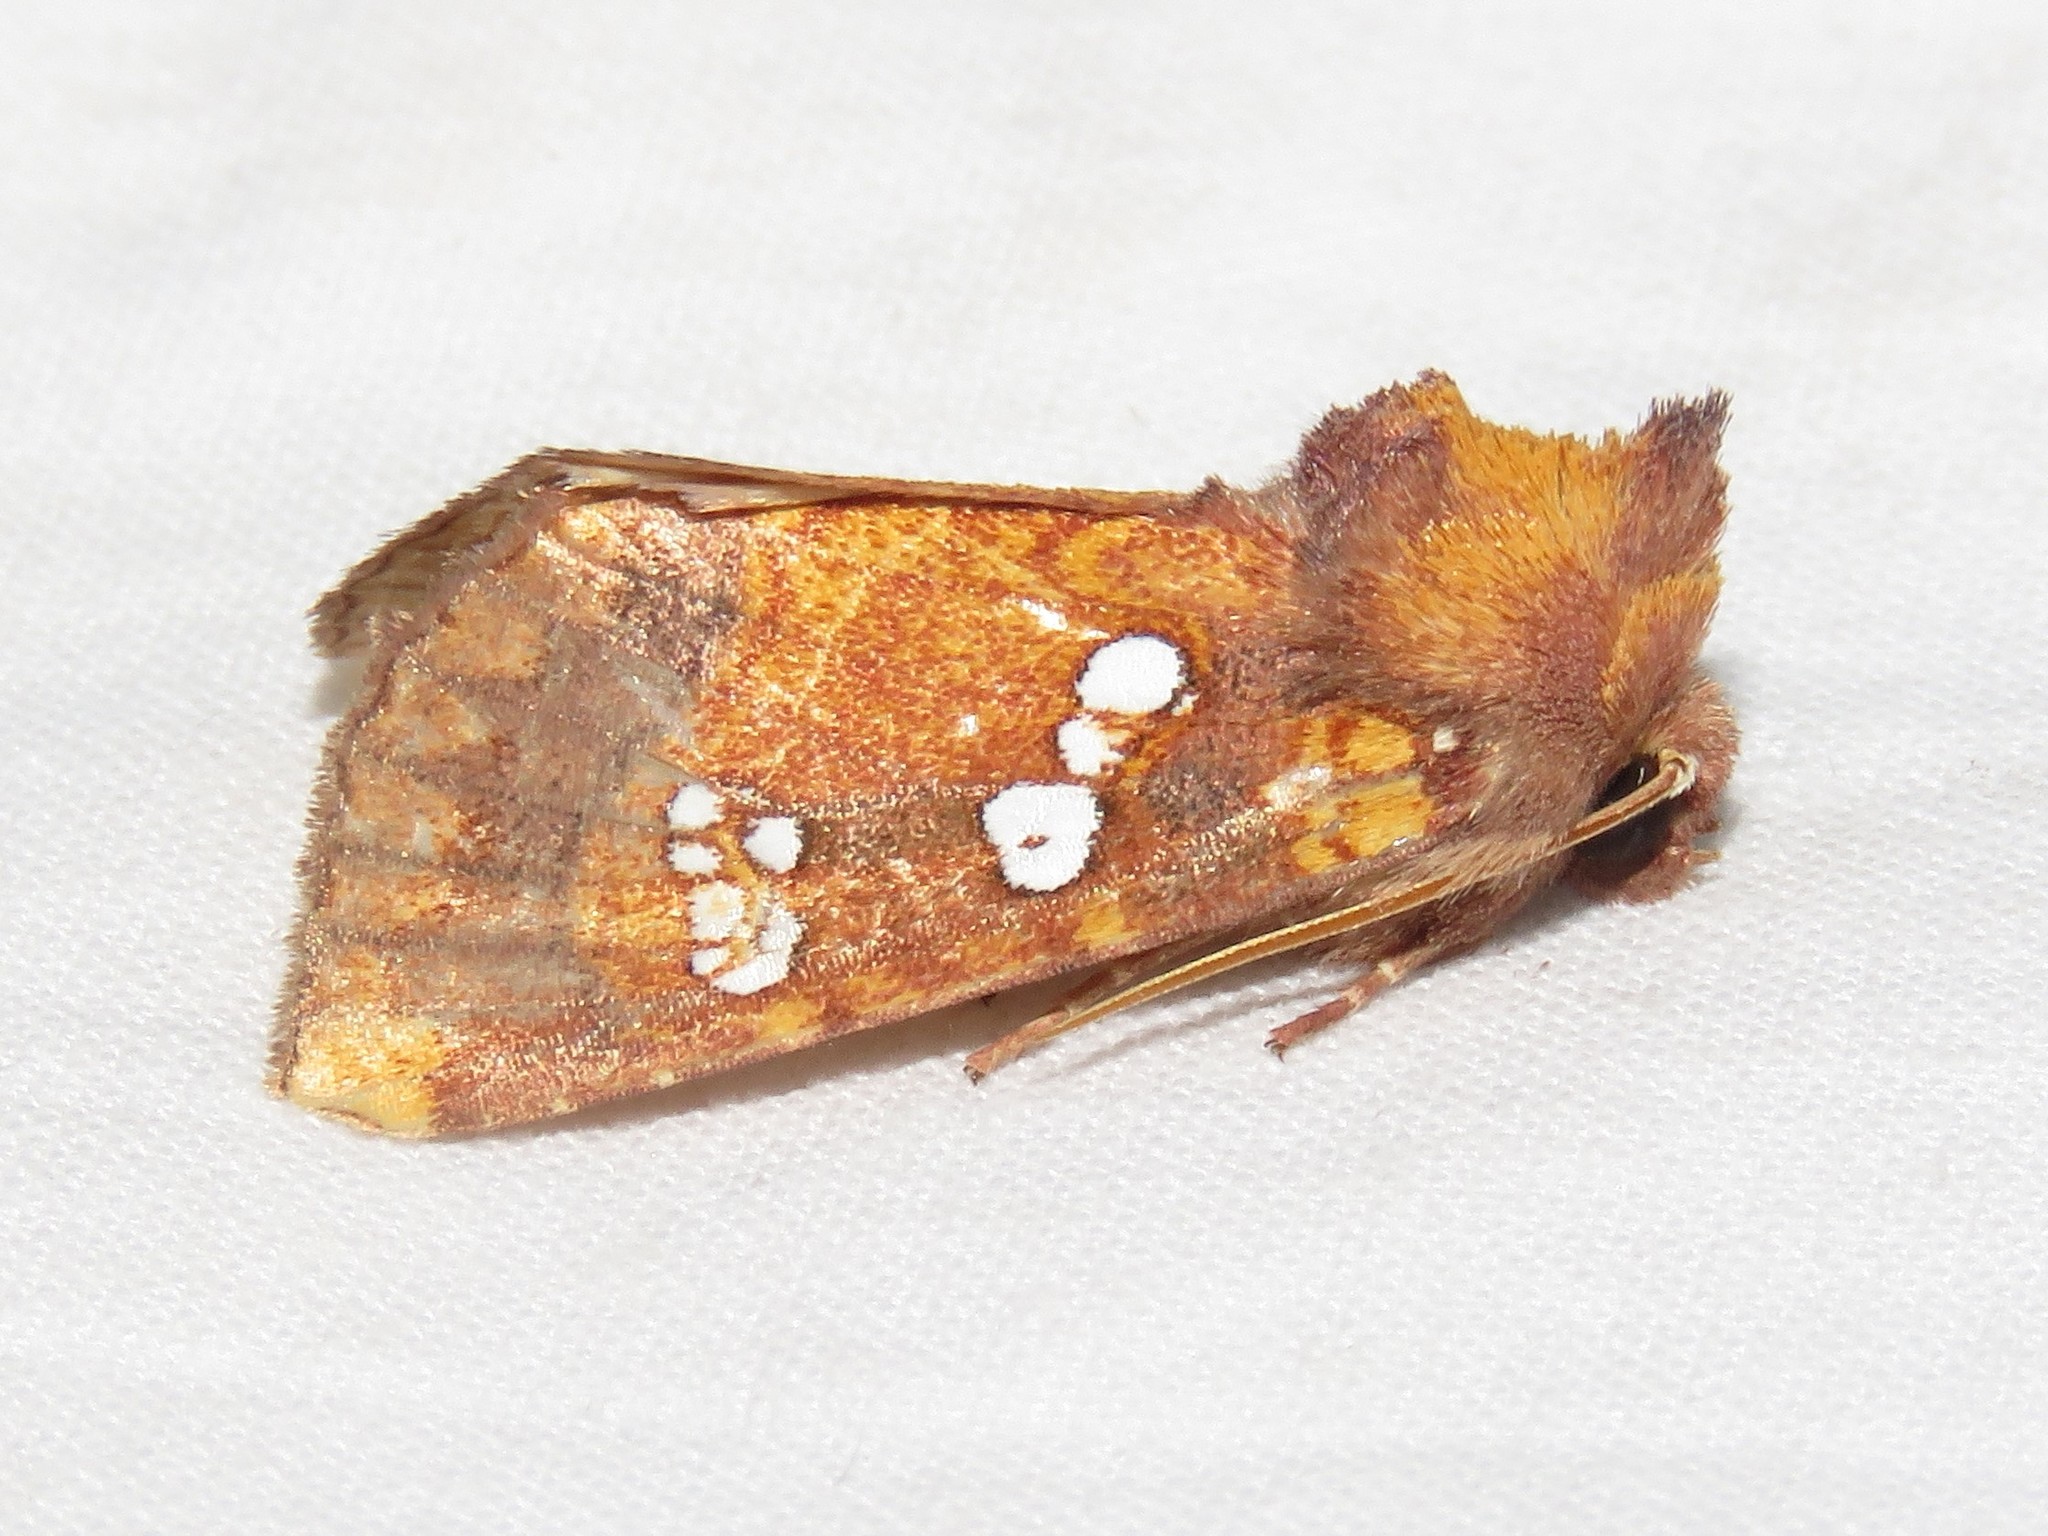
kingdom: Animalia
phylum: Arthropoda
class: Insecta
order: Lepidoptera
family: Noctuidae
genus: Papaipema
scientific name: Papaipema baptisiae
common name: Wild indigo borer moth
